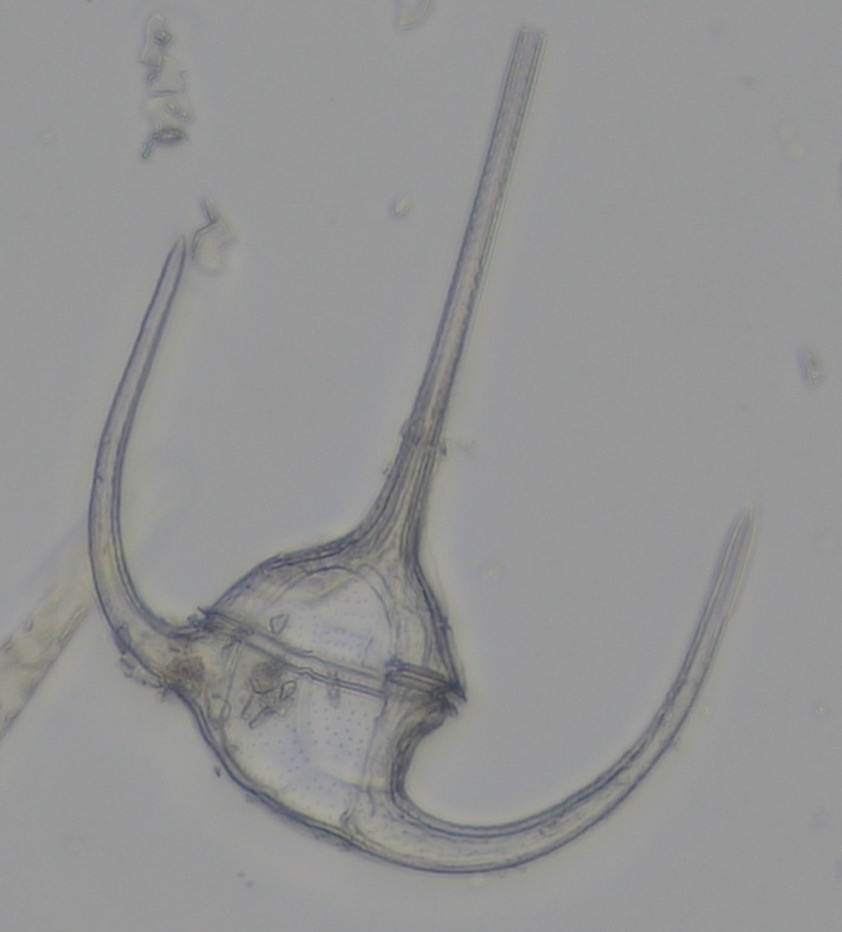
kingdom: Chromista
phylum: Myzozoa
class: Dinophyceae
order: Gonyaulacales
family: Ceratiaceae
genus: Tripos
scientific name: Tripos muelleri
